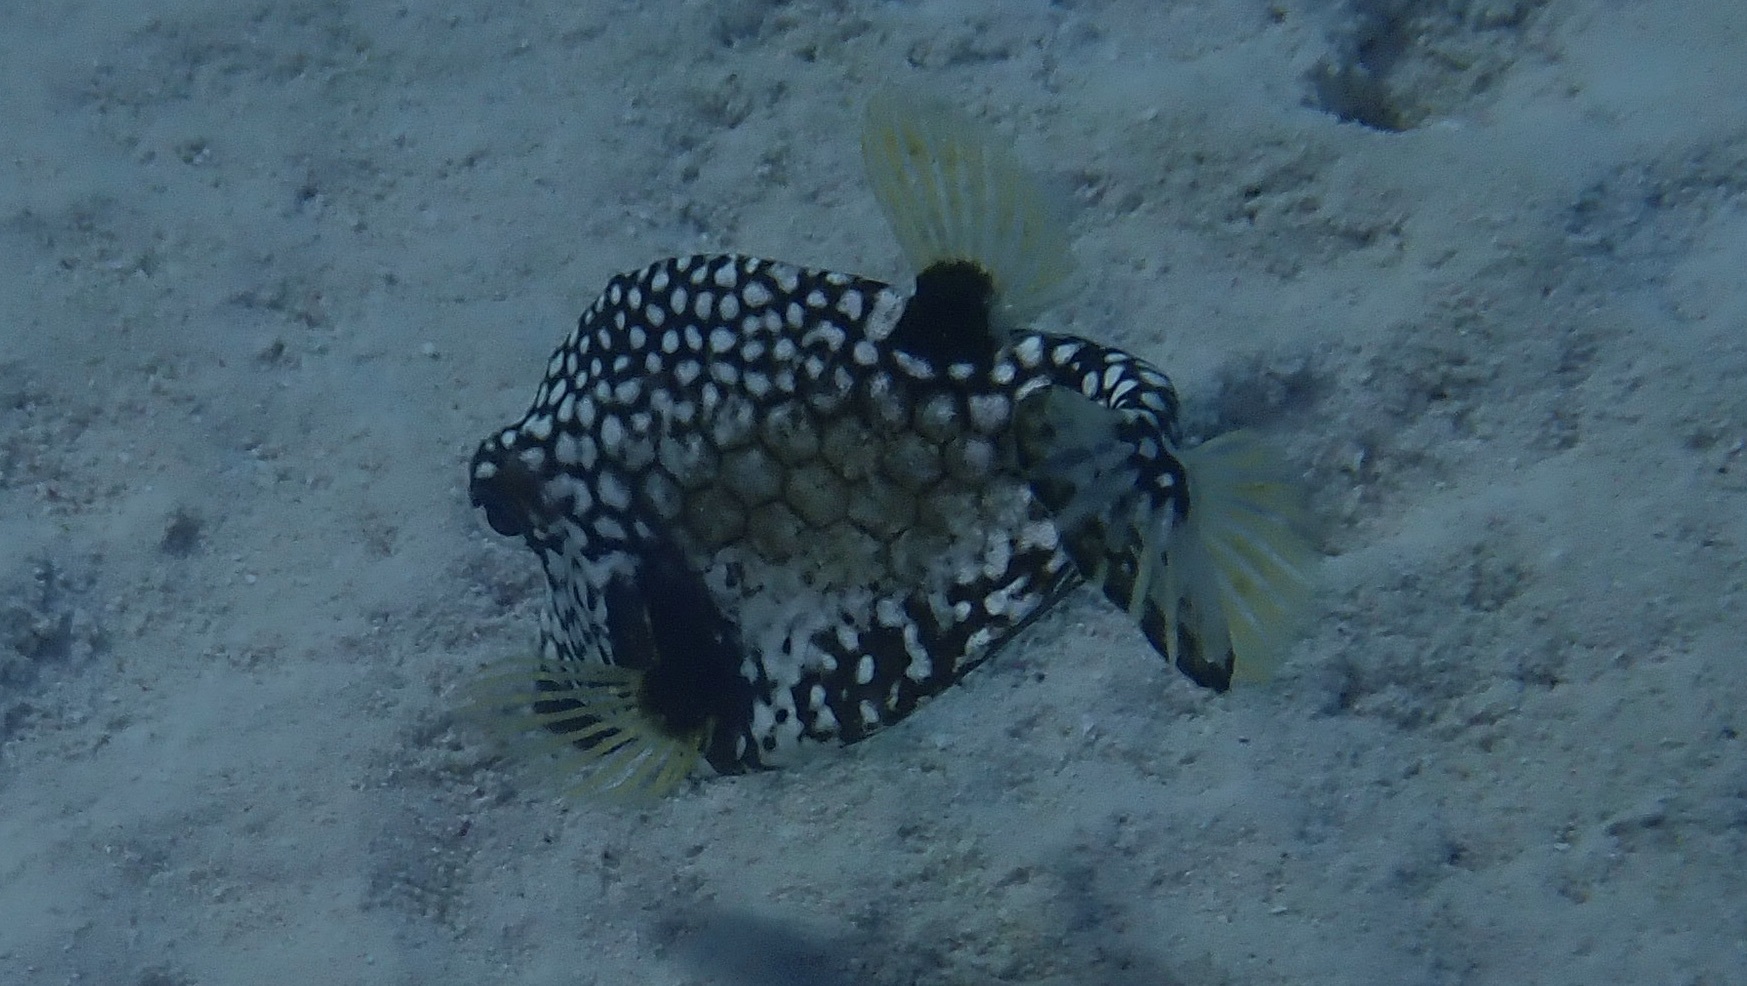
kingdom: Animalia
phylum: Chordata
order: Tetraodontiformes
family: Ostraciidae
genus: Lactophrys
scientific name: Lactophrys triqueter
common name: Smooth trunkfish
